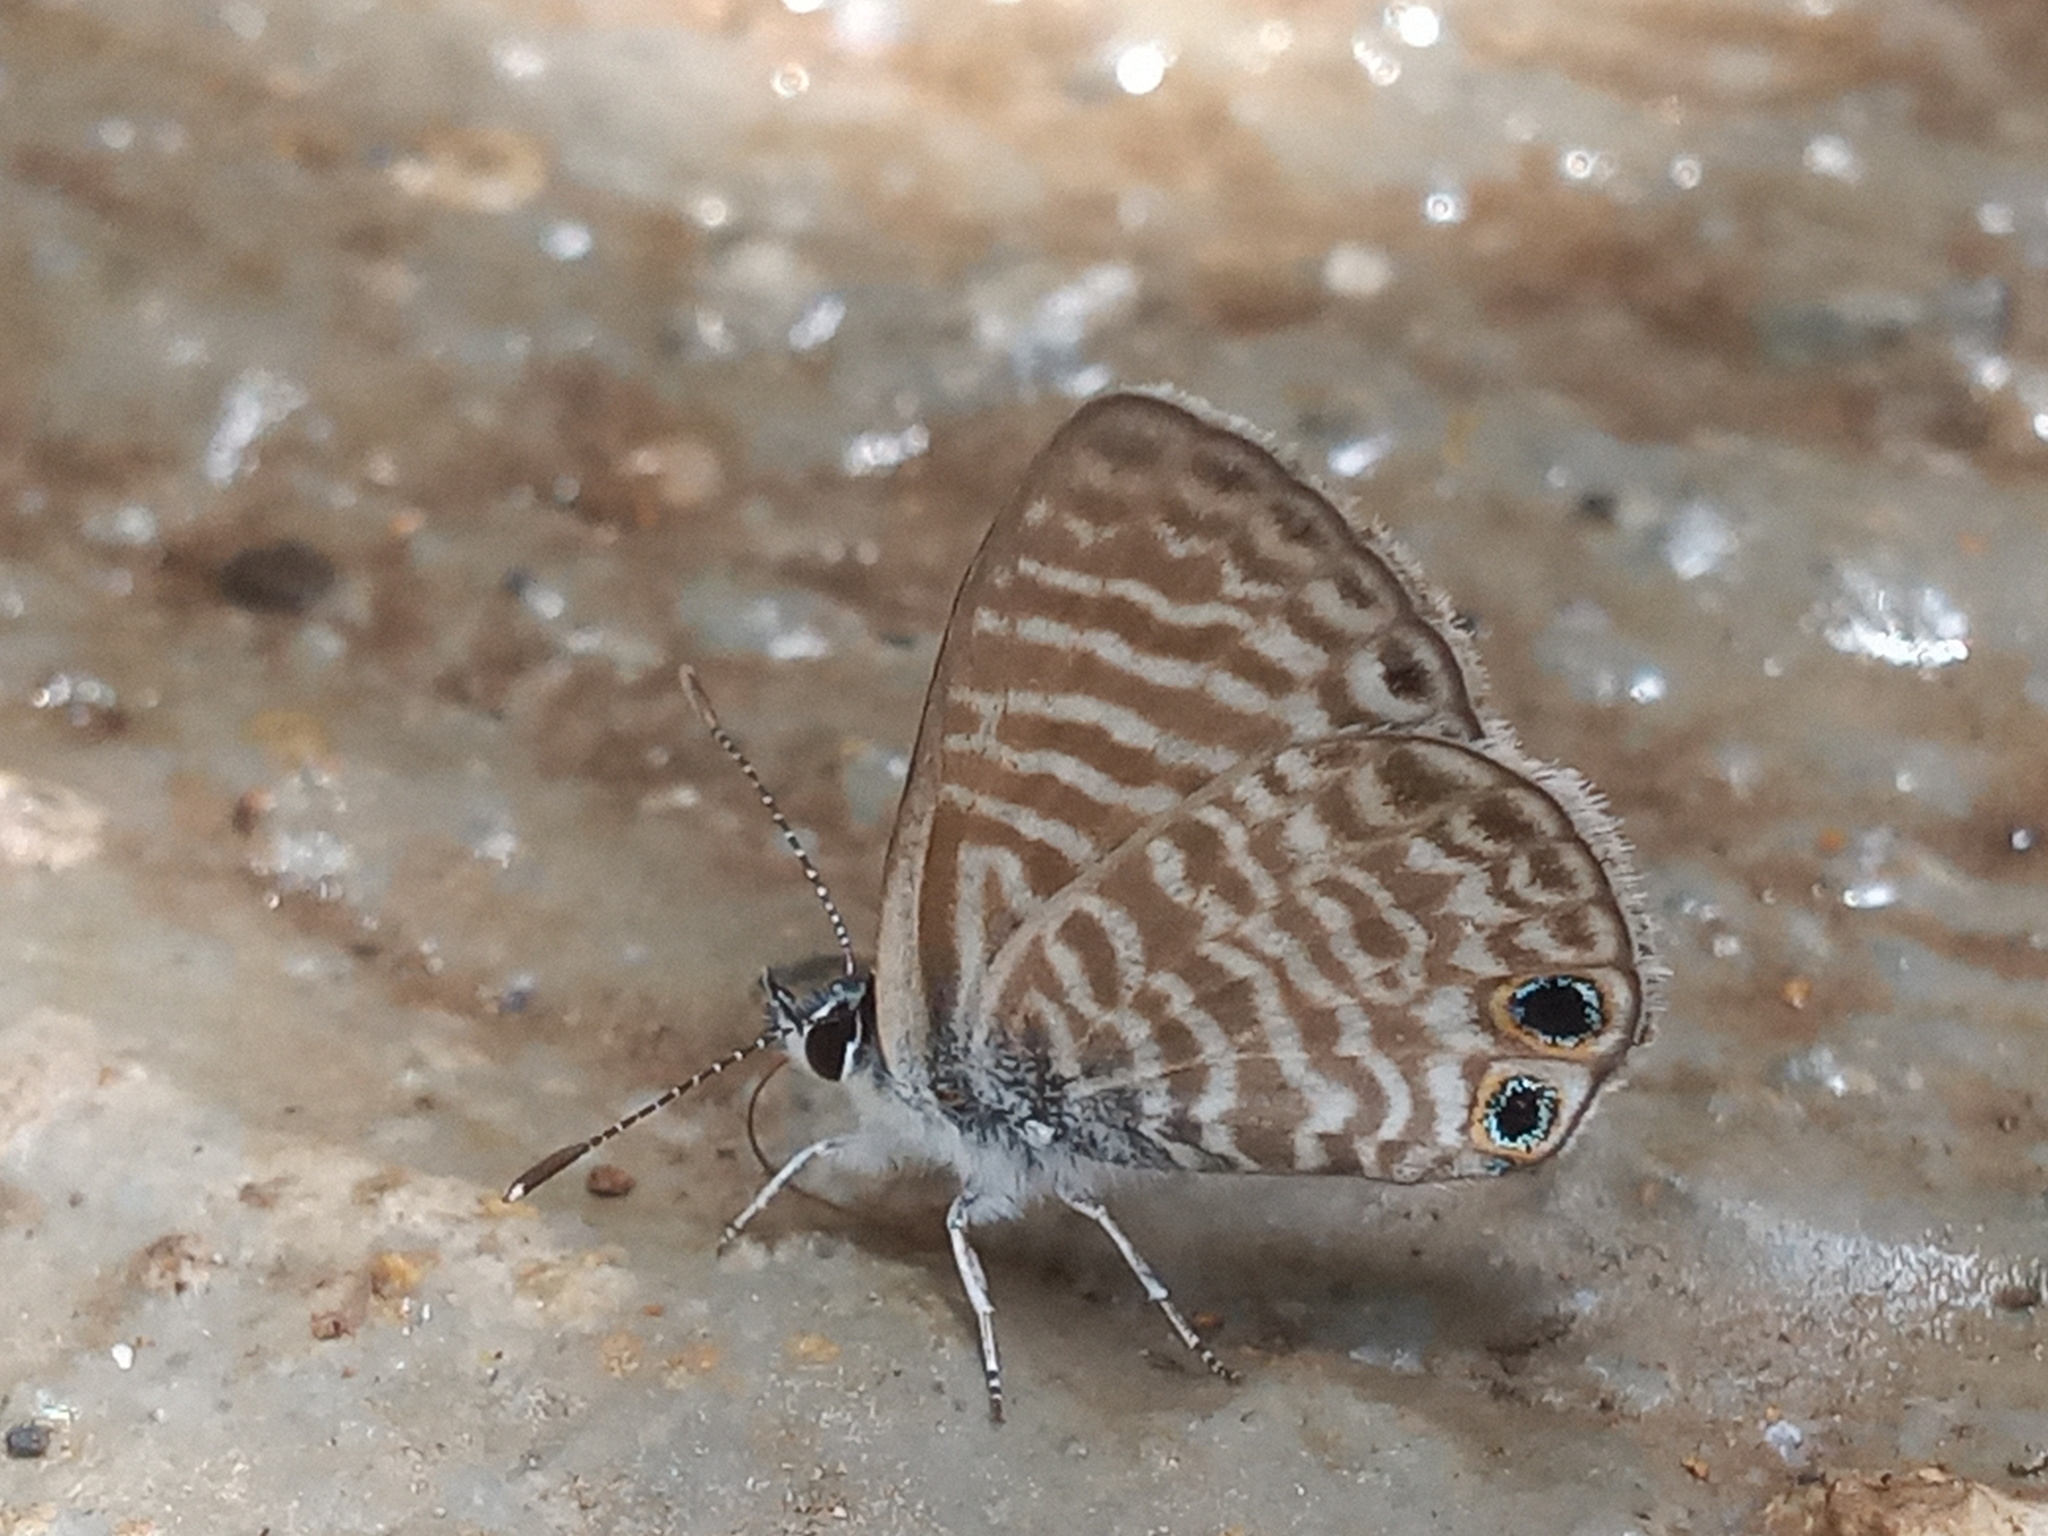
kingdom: Animalia
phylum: Arthropoda
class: Insecta
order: Lepidoptera
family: Lycaenidae
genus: Leptotes
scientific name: Leptotes marina
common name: Marine blue
